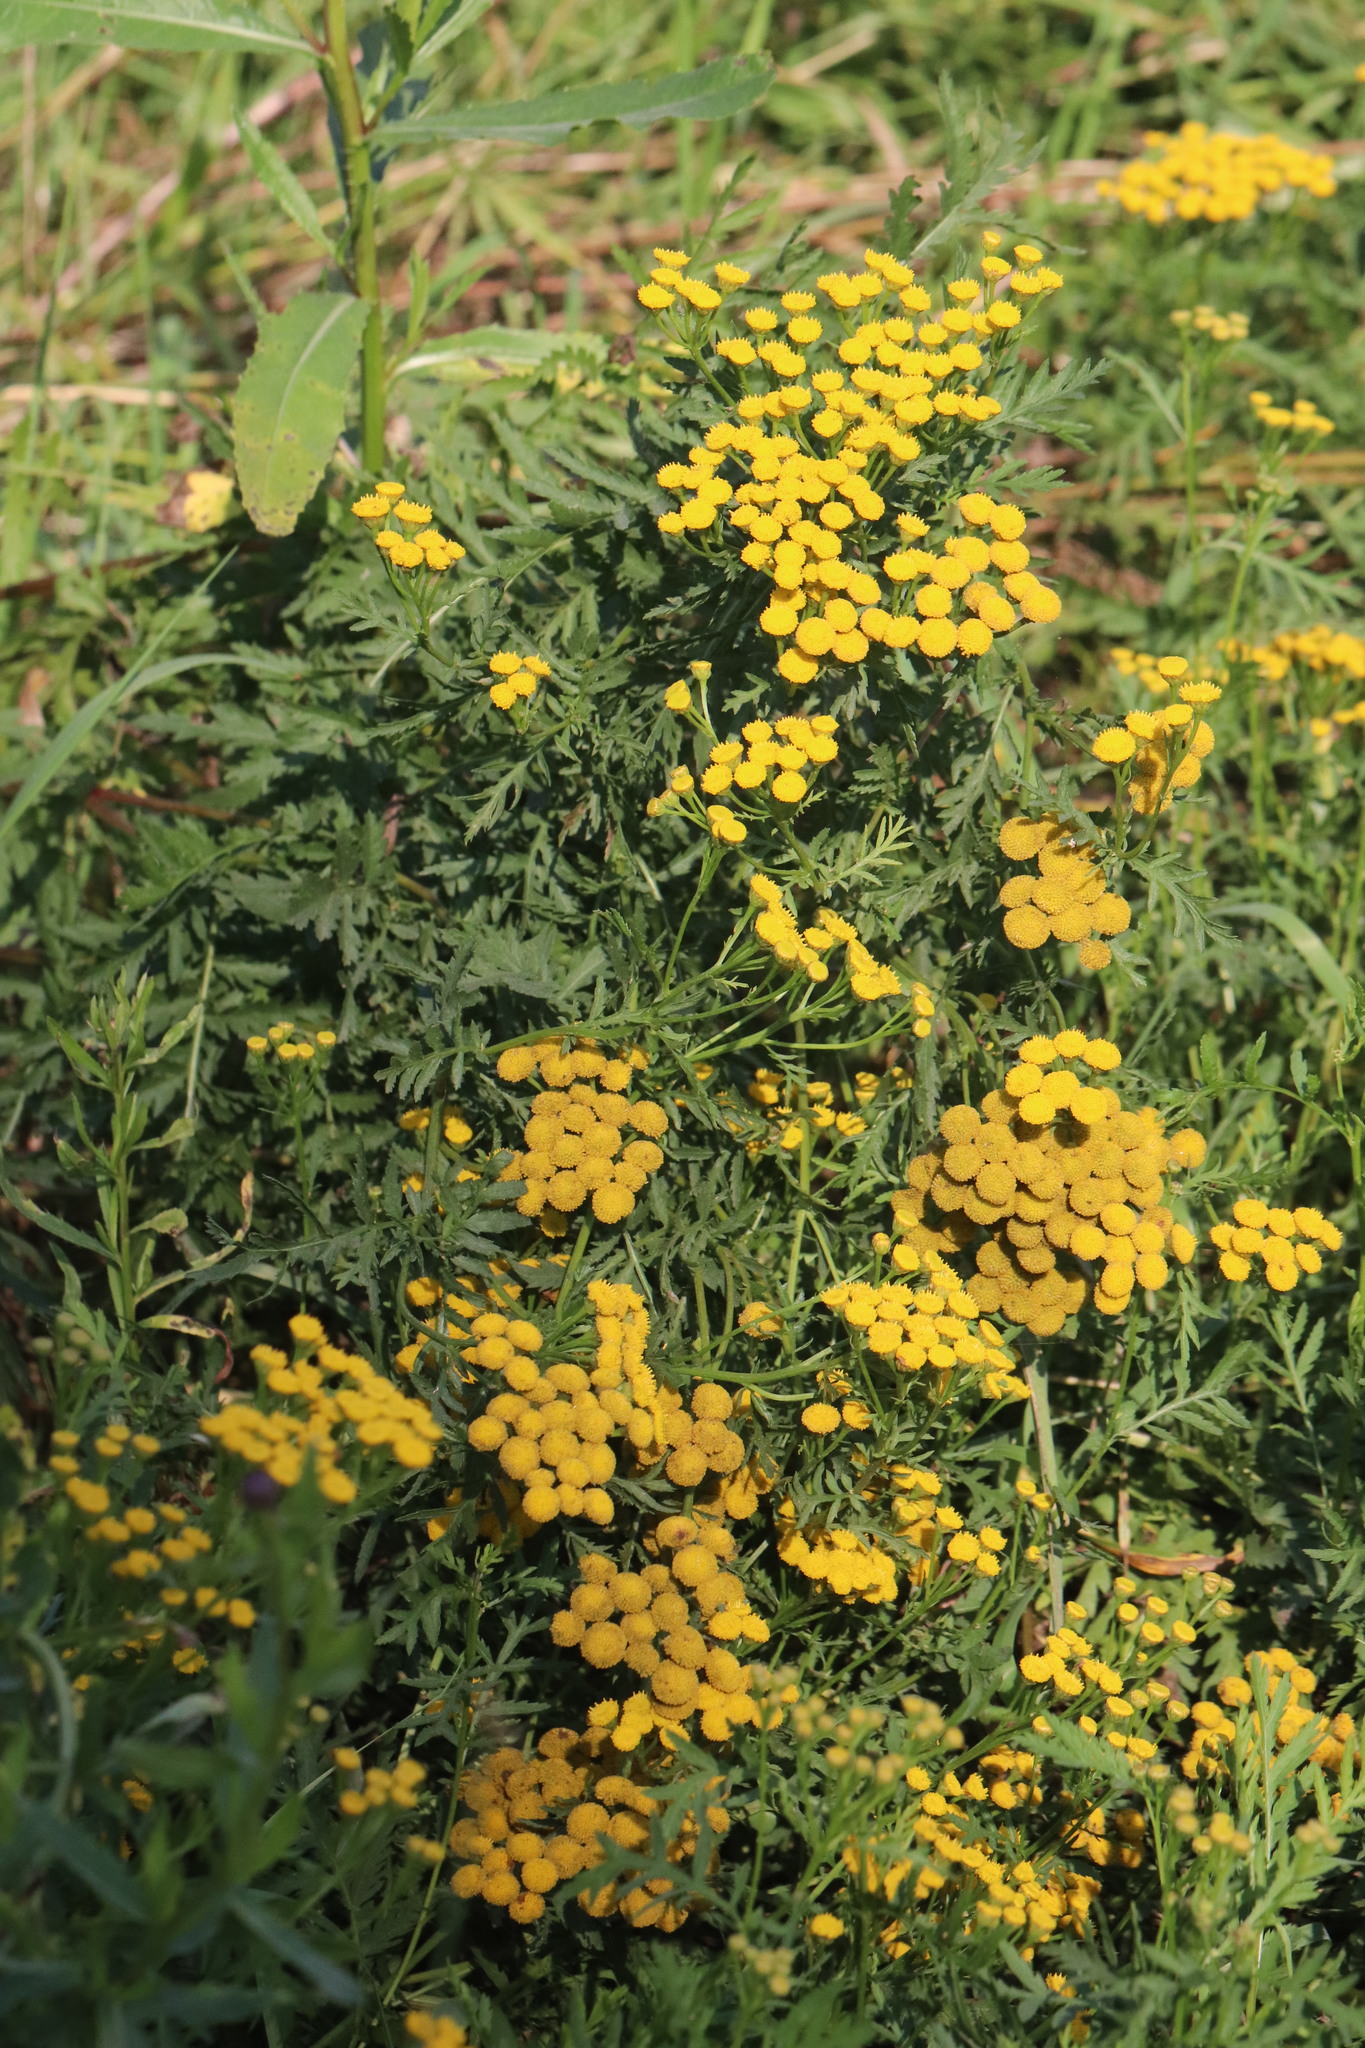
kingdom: Plantae
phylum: Tracheophyta
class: Magnoliopsida
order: Asterales
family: Asteraceae
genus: Tanacetum
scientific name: Tanacetum vulgare
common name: Common tansy
